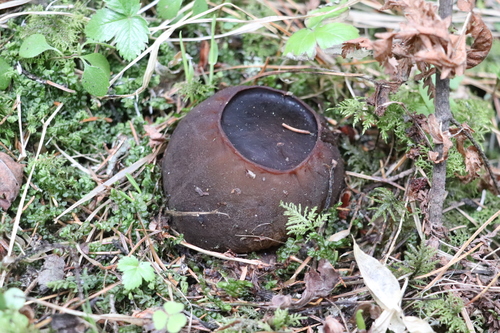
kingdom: Fungi
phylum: Ascomycota
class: Pezizomycetes
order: Pezizales
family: Sarcosomataceae
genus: Sarcosoma
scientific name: Sarcosoma globosum
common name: Charred-pancake cup
